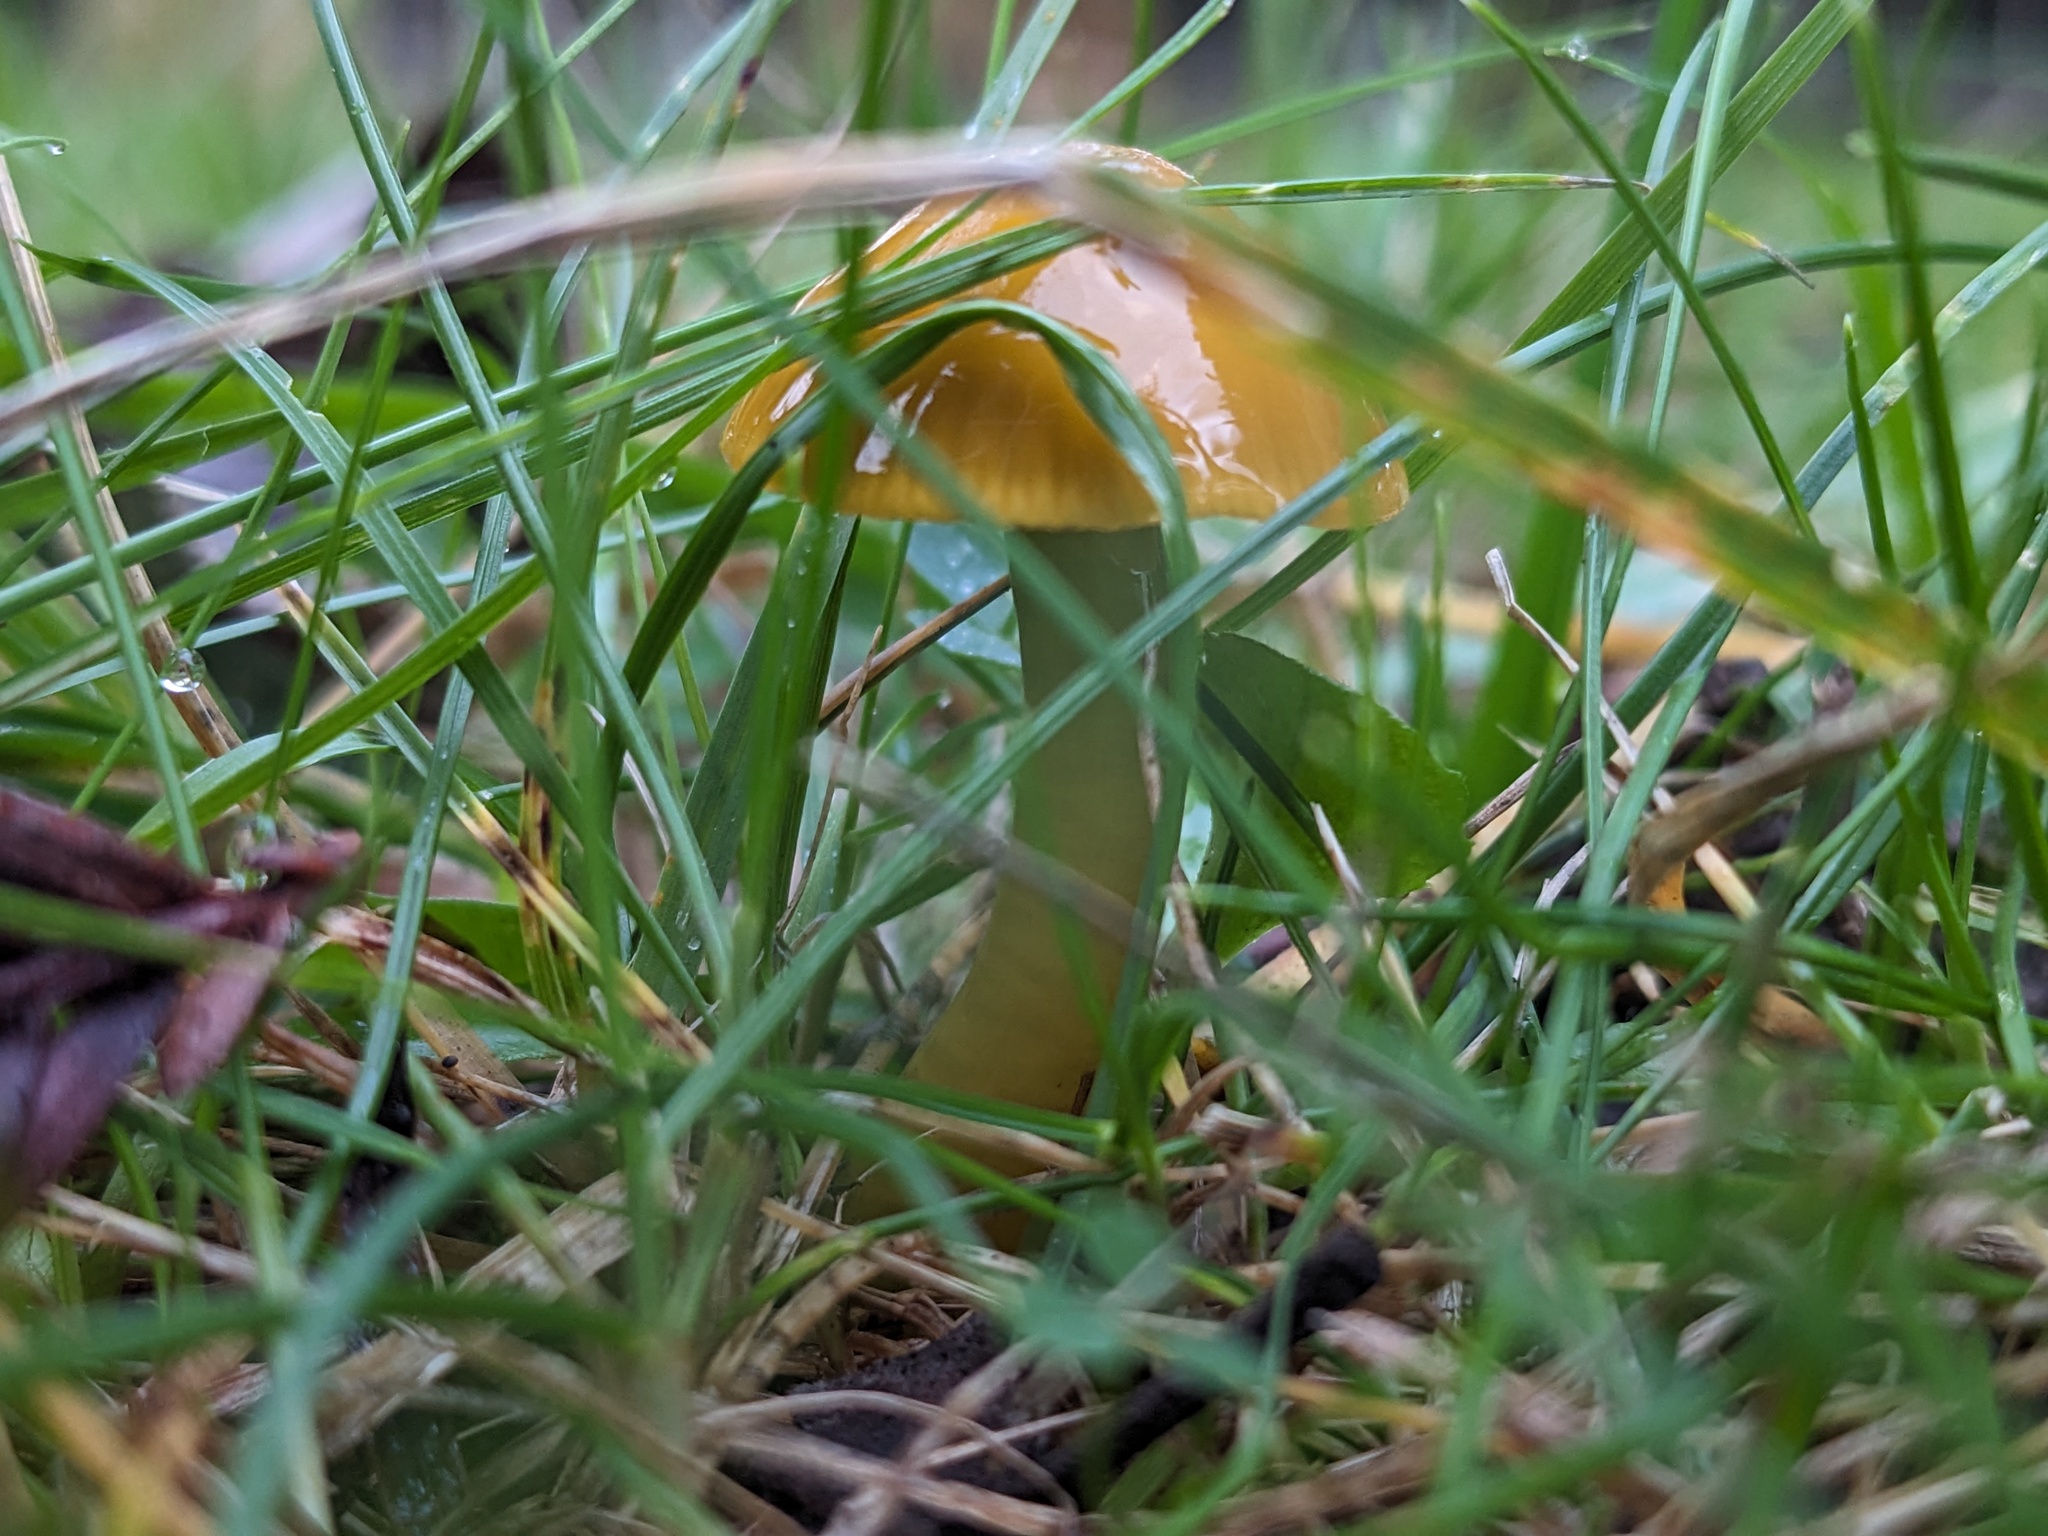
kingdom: Fungi
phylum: Basidiomycota
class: Agaricomycetes
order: Agaricales
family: Hygrophoraceae
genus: Gliophorus
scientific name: Gliophorus psittacinus
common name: Parrot wax-cap
